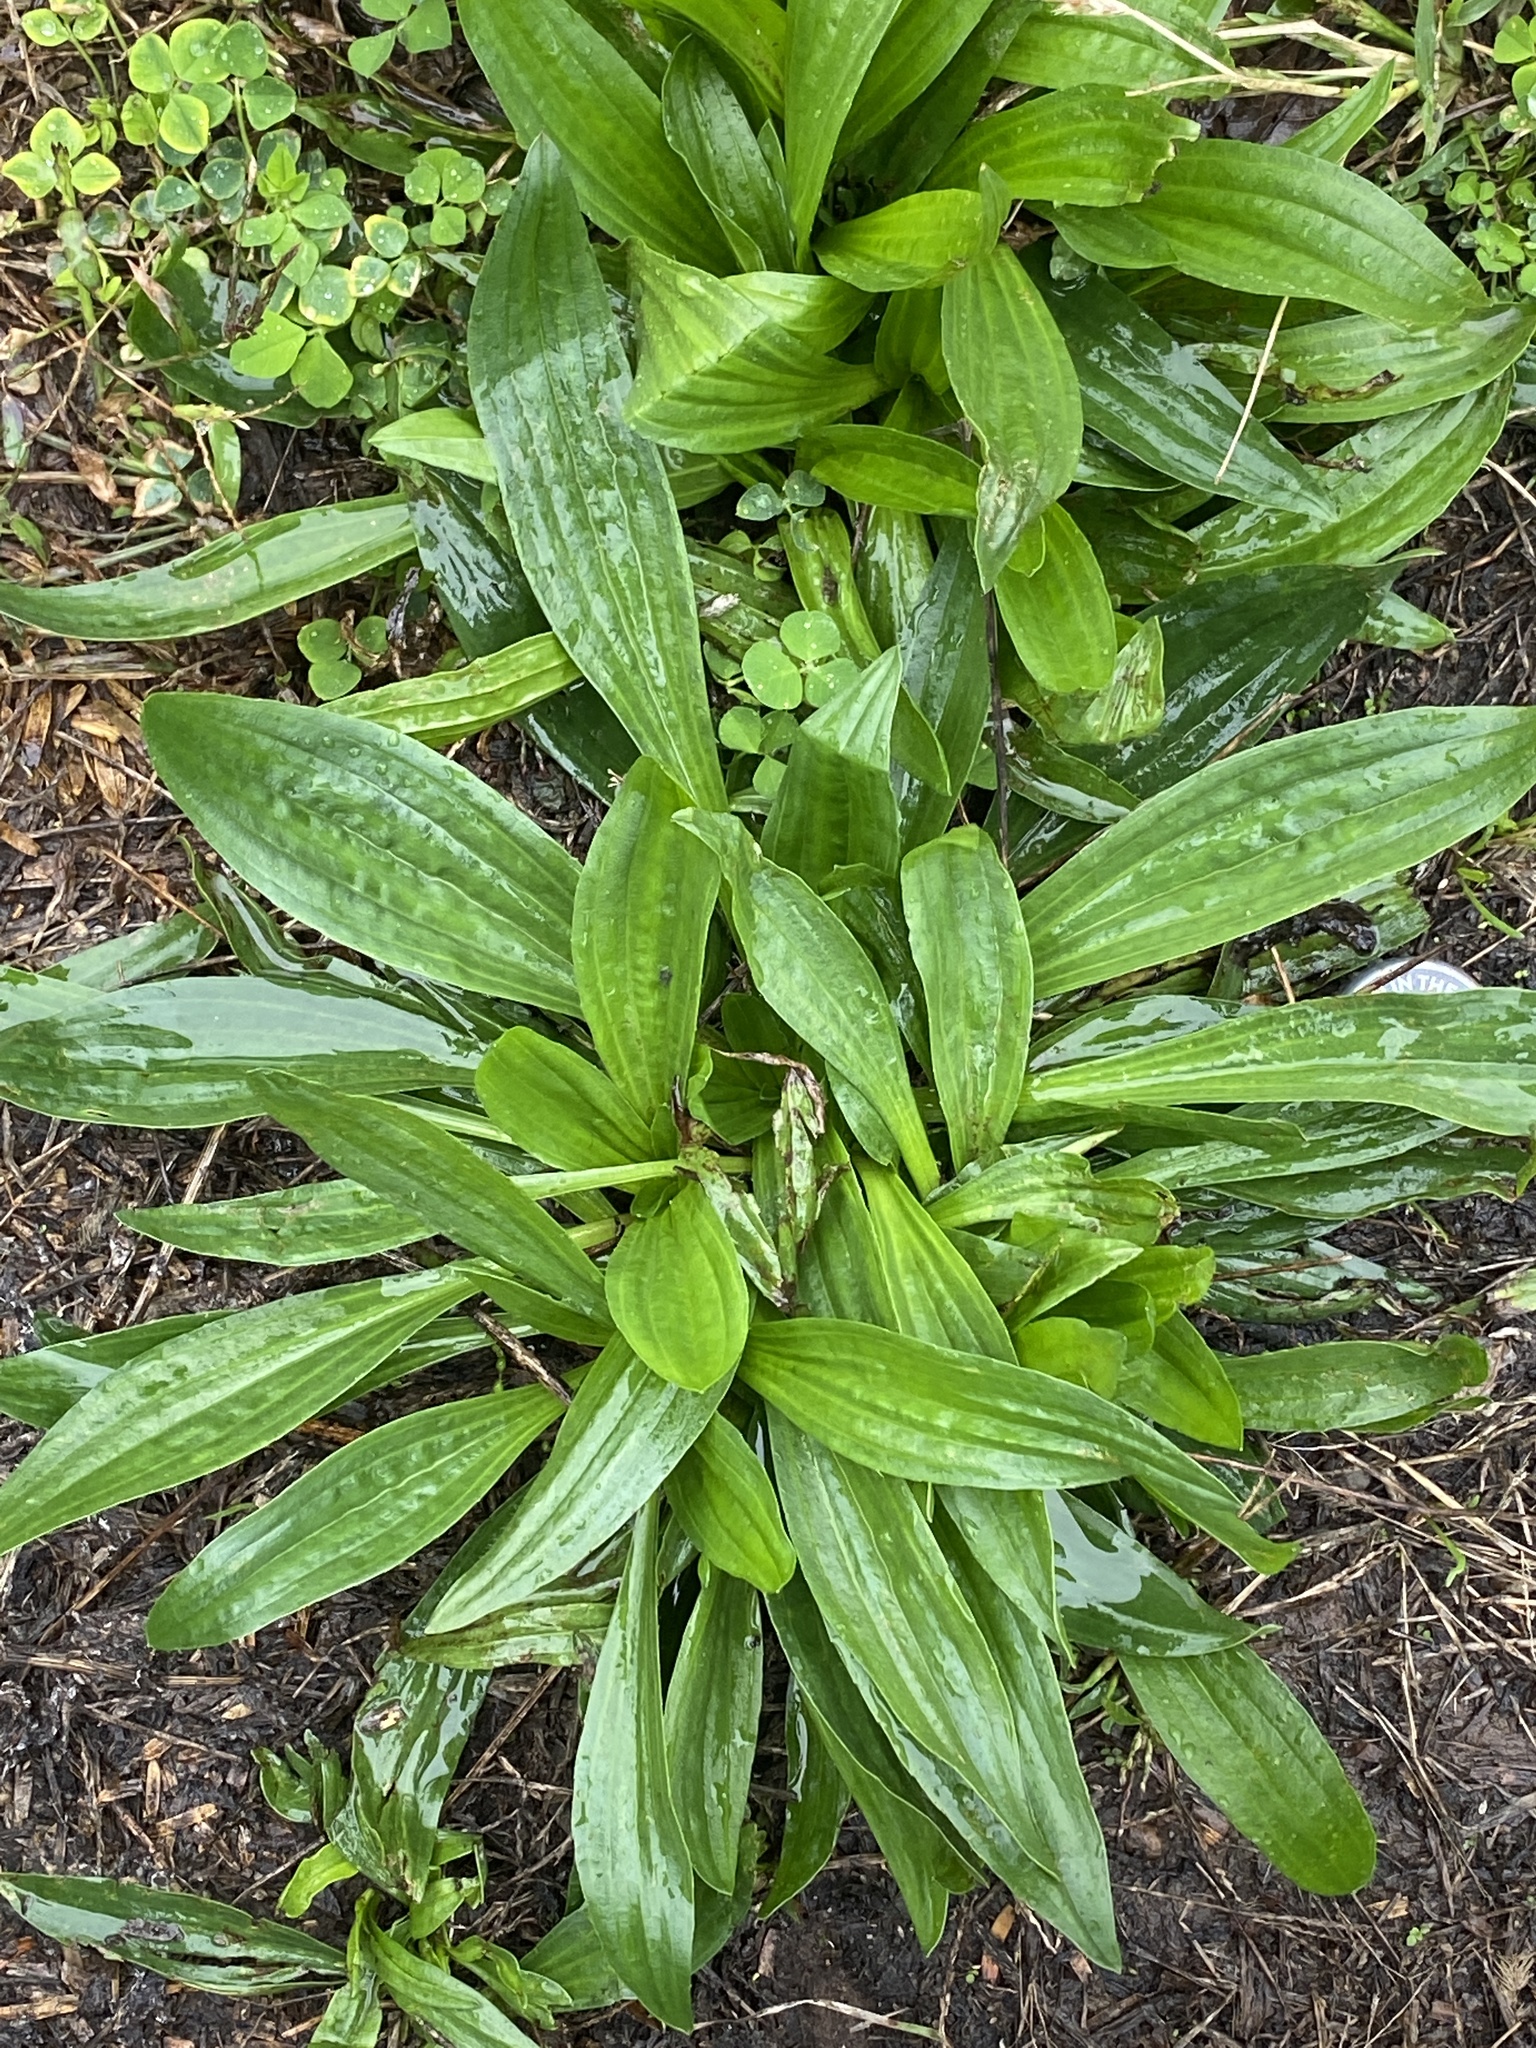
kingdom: Plantae
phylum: Tracheophyta
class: Magnoliopsida
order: Lamiales
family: Plantaginaceae
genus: Plantago
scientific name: Plantago lanceolata
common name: Ribwort plantain
